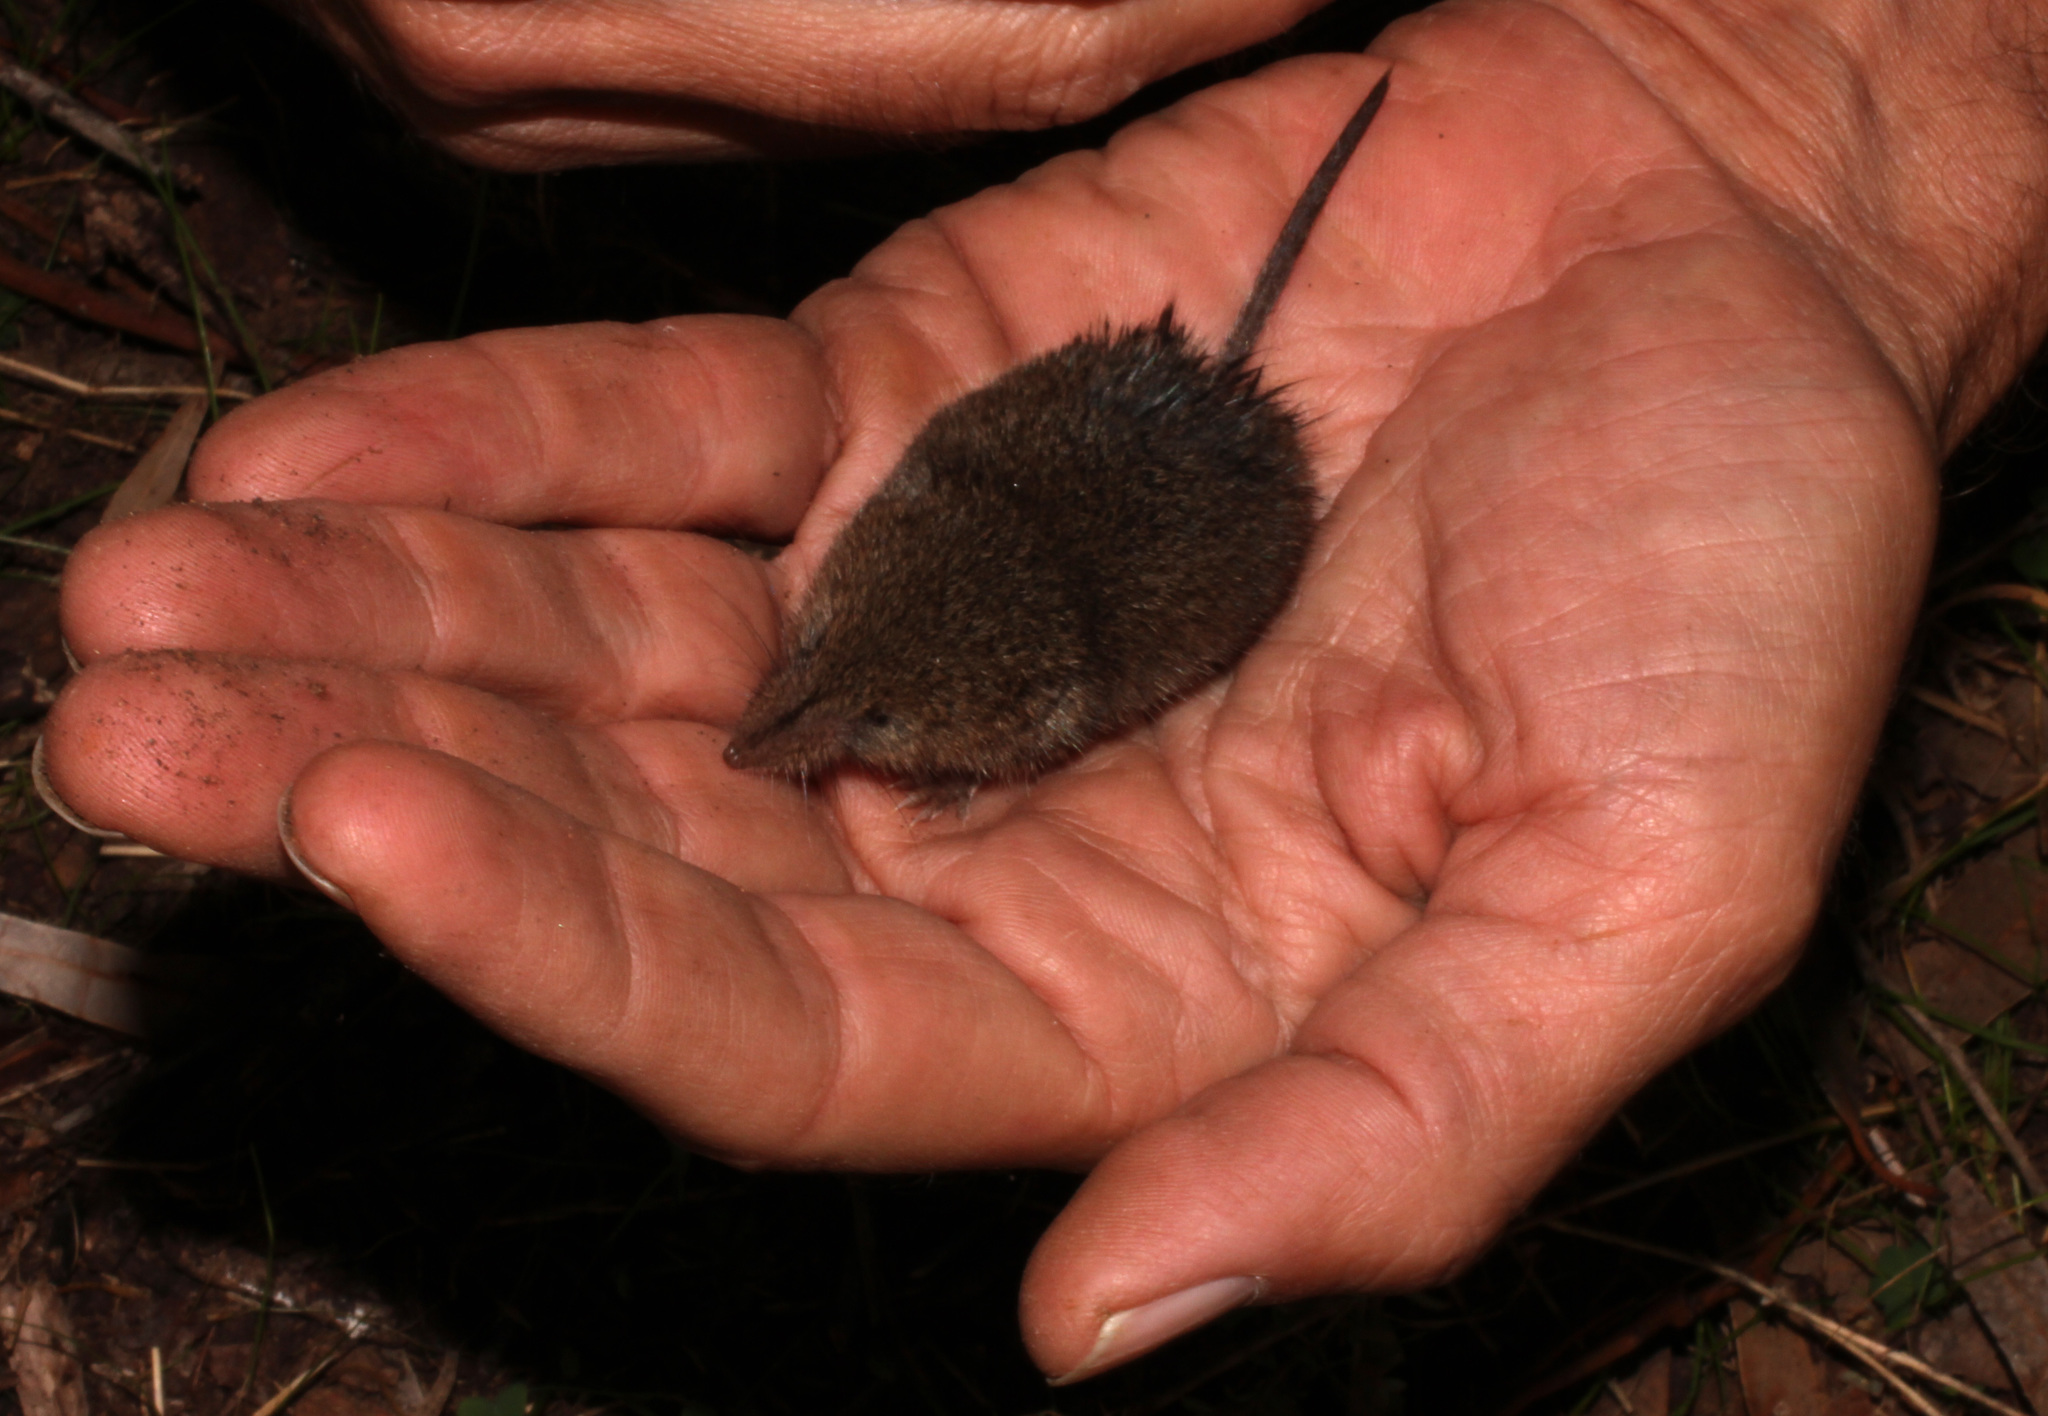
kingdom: Animalia
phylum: Chordata
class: Mammalia
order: Soricomorpha
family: Soricidae
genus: Myosorex
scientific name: Myosorex varius
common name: Forest shrew
